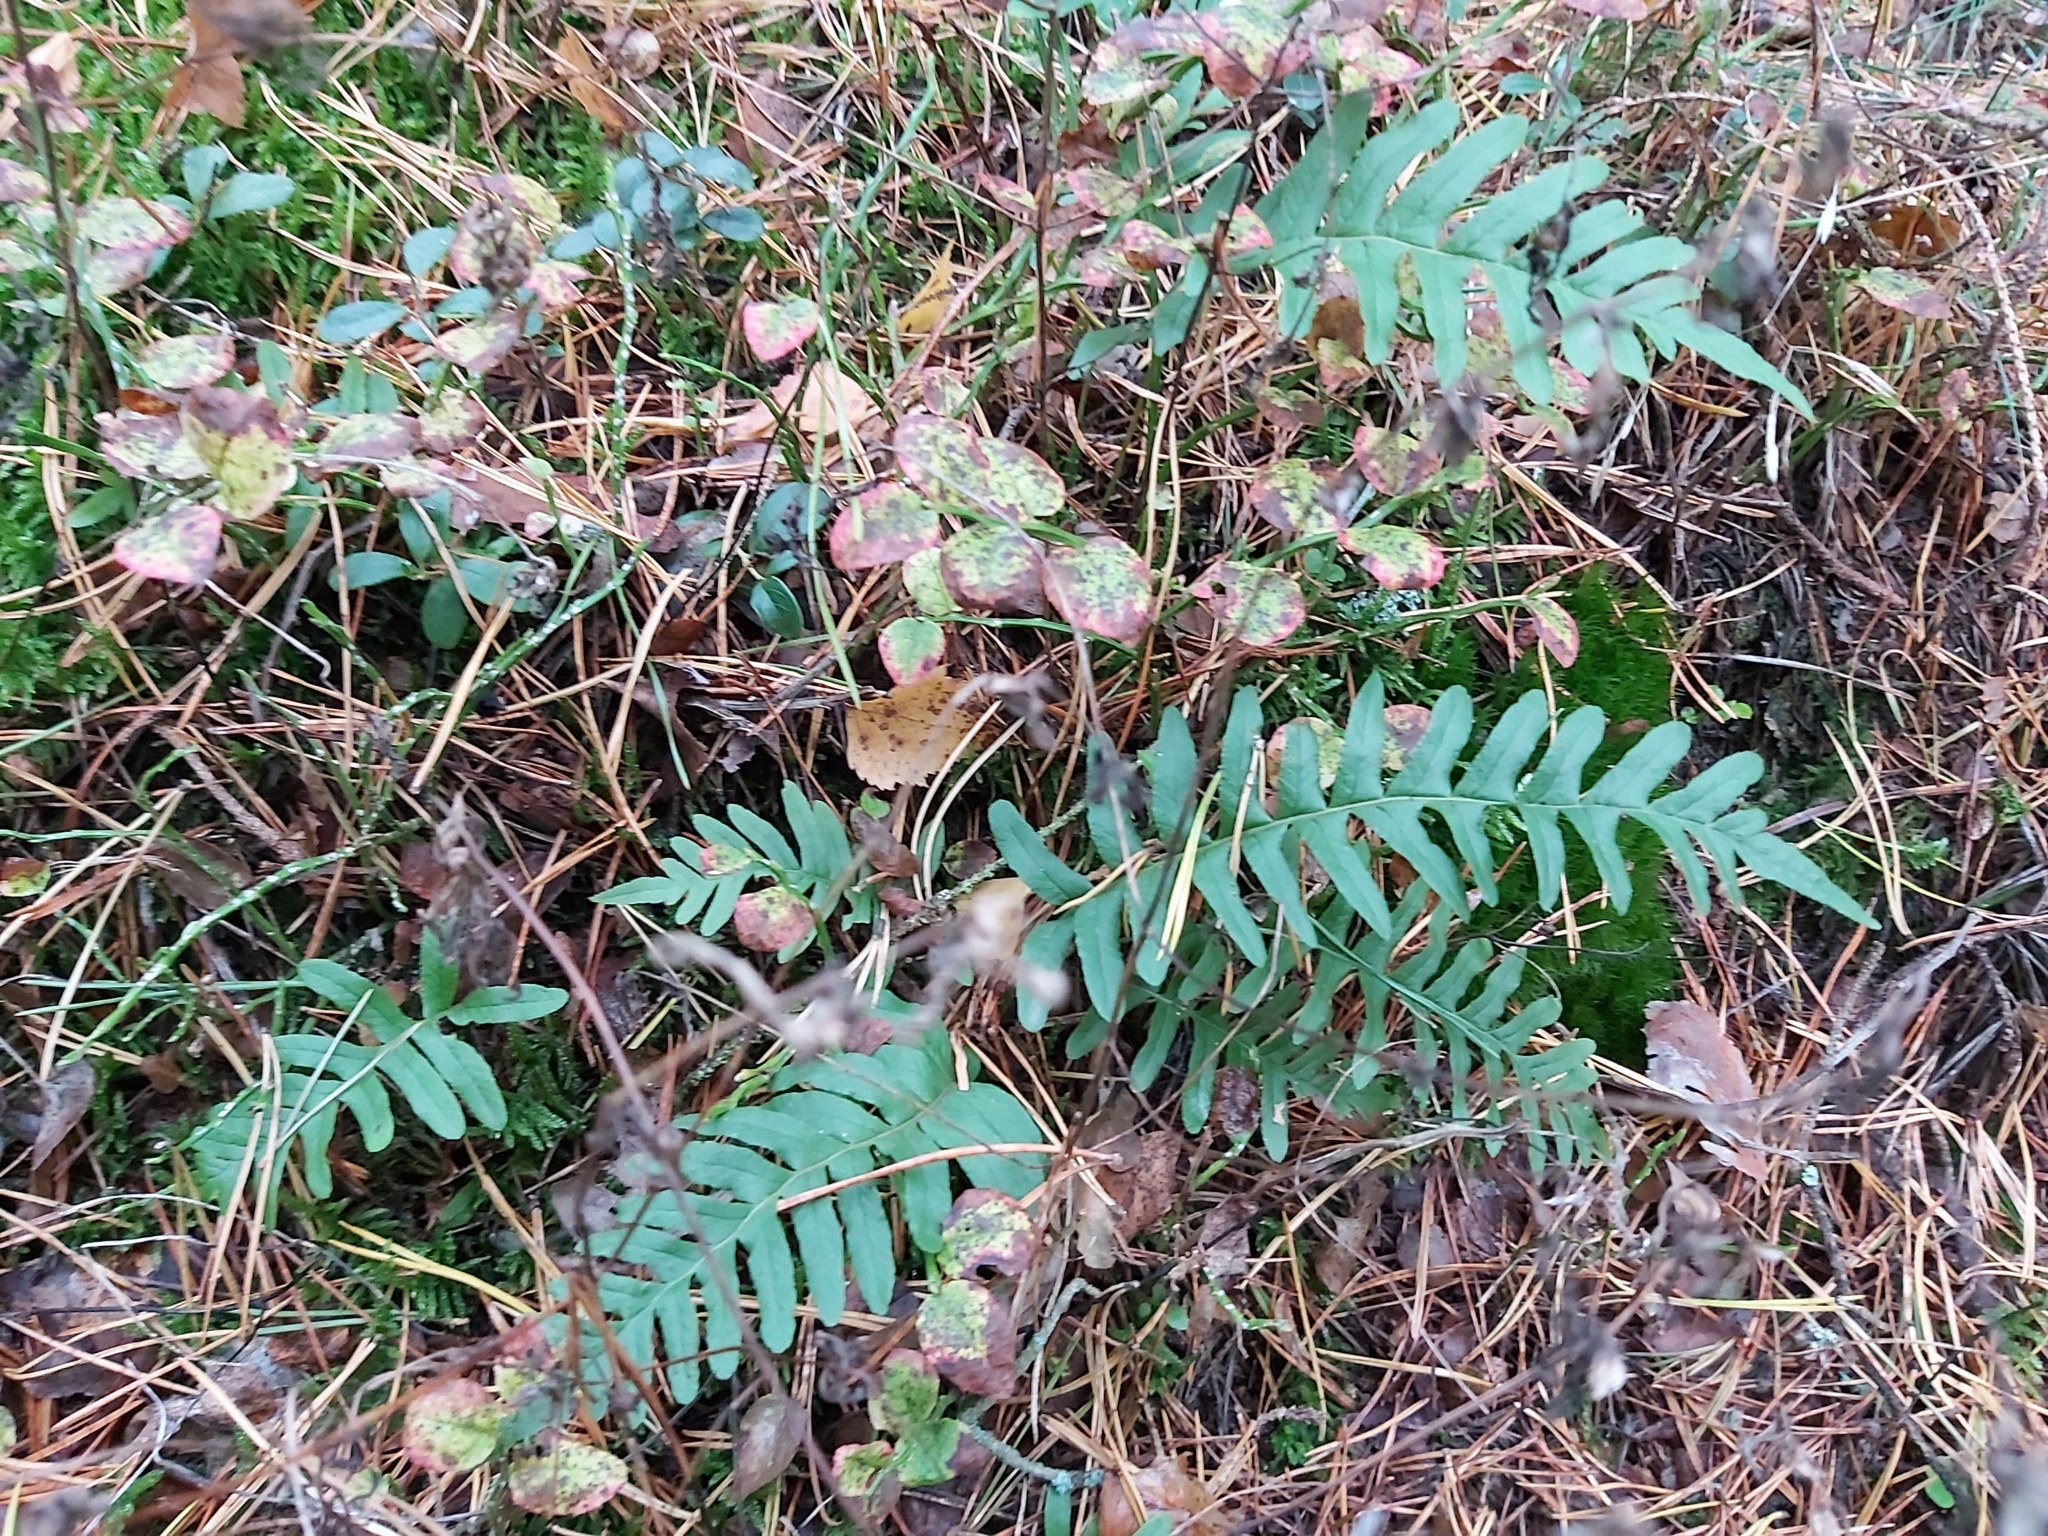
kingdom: Plantae
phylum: Tracheophyta
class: Polypodiopsida
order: Polypodiales
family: Polypodiaceae
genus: Polypodium
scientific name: Polypodium vulgare
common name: Common polypody
